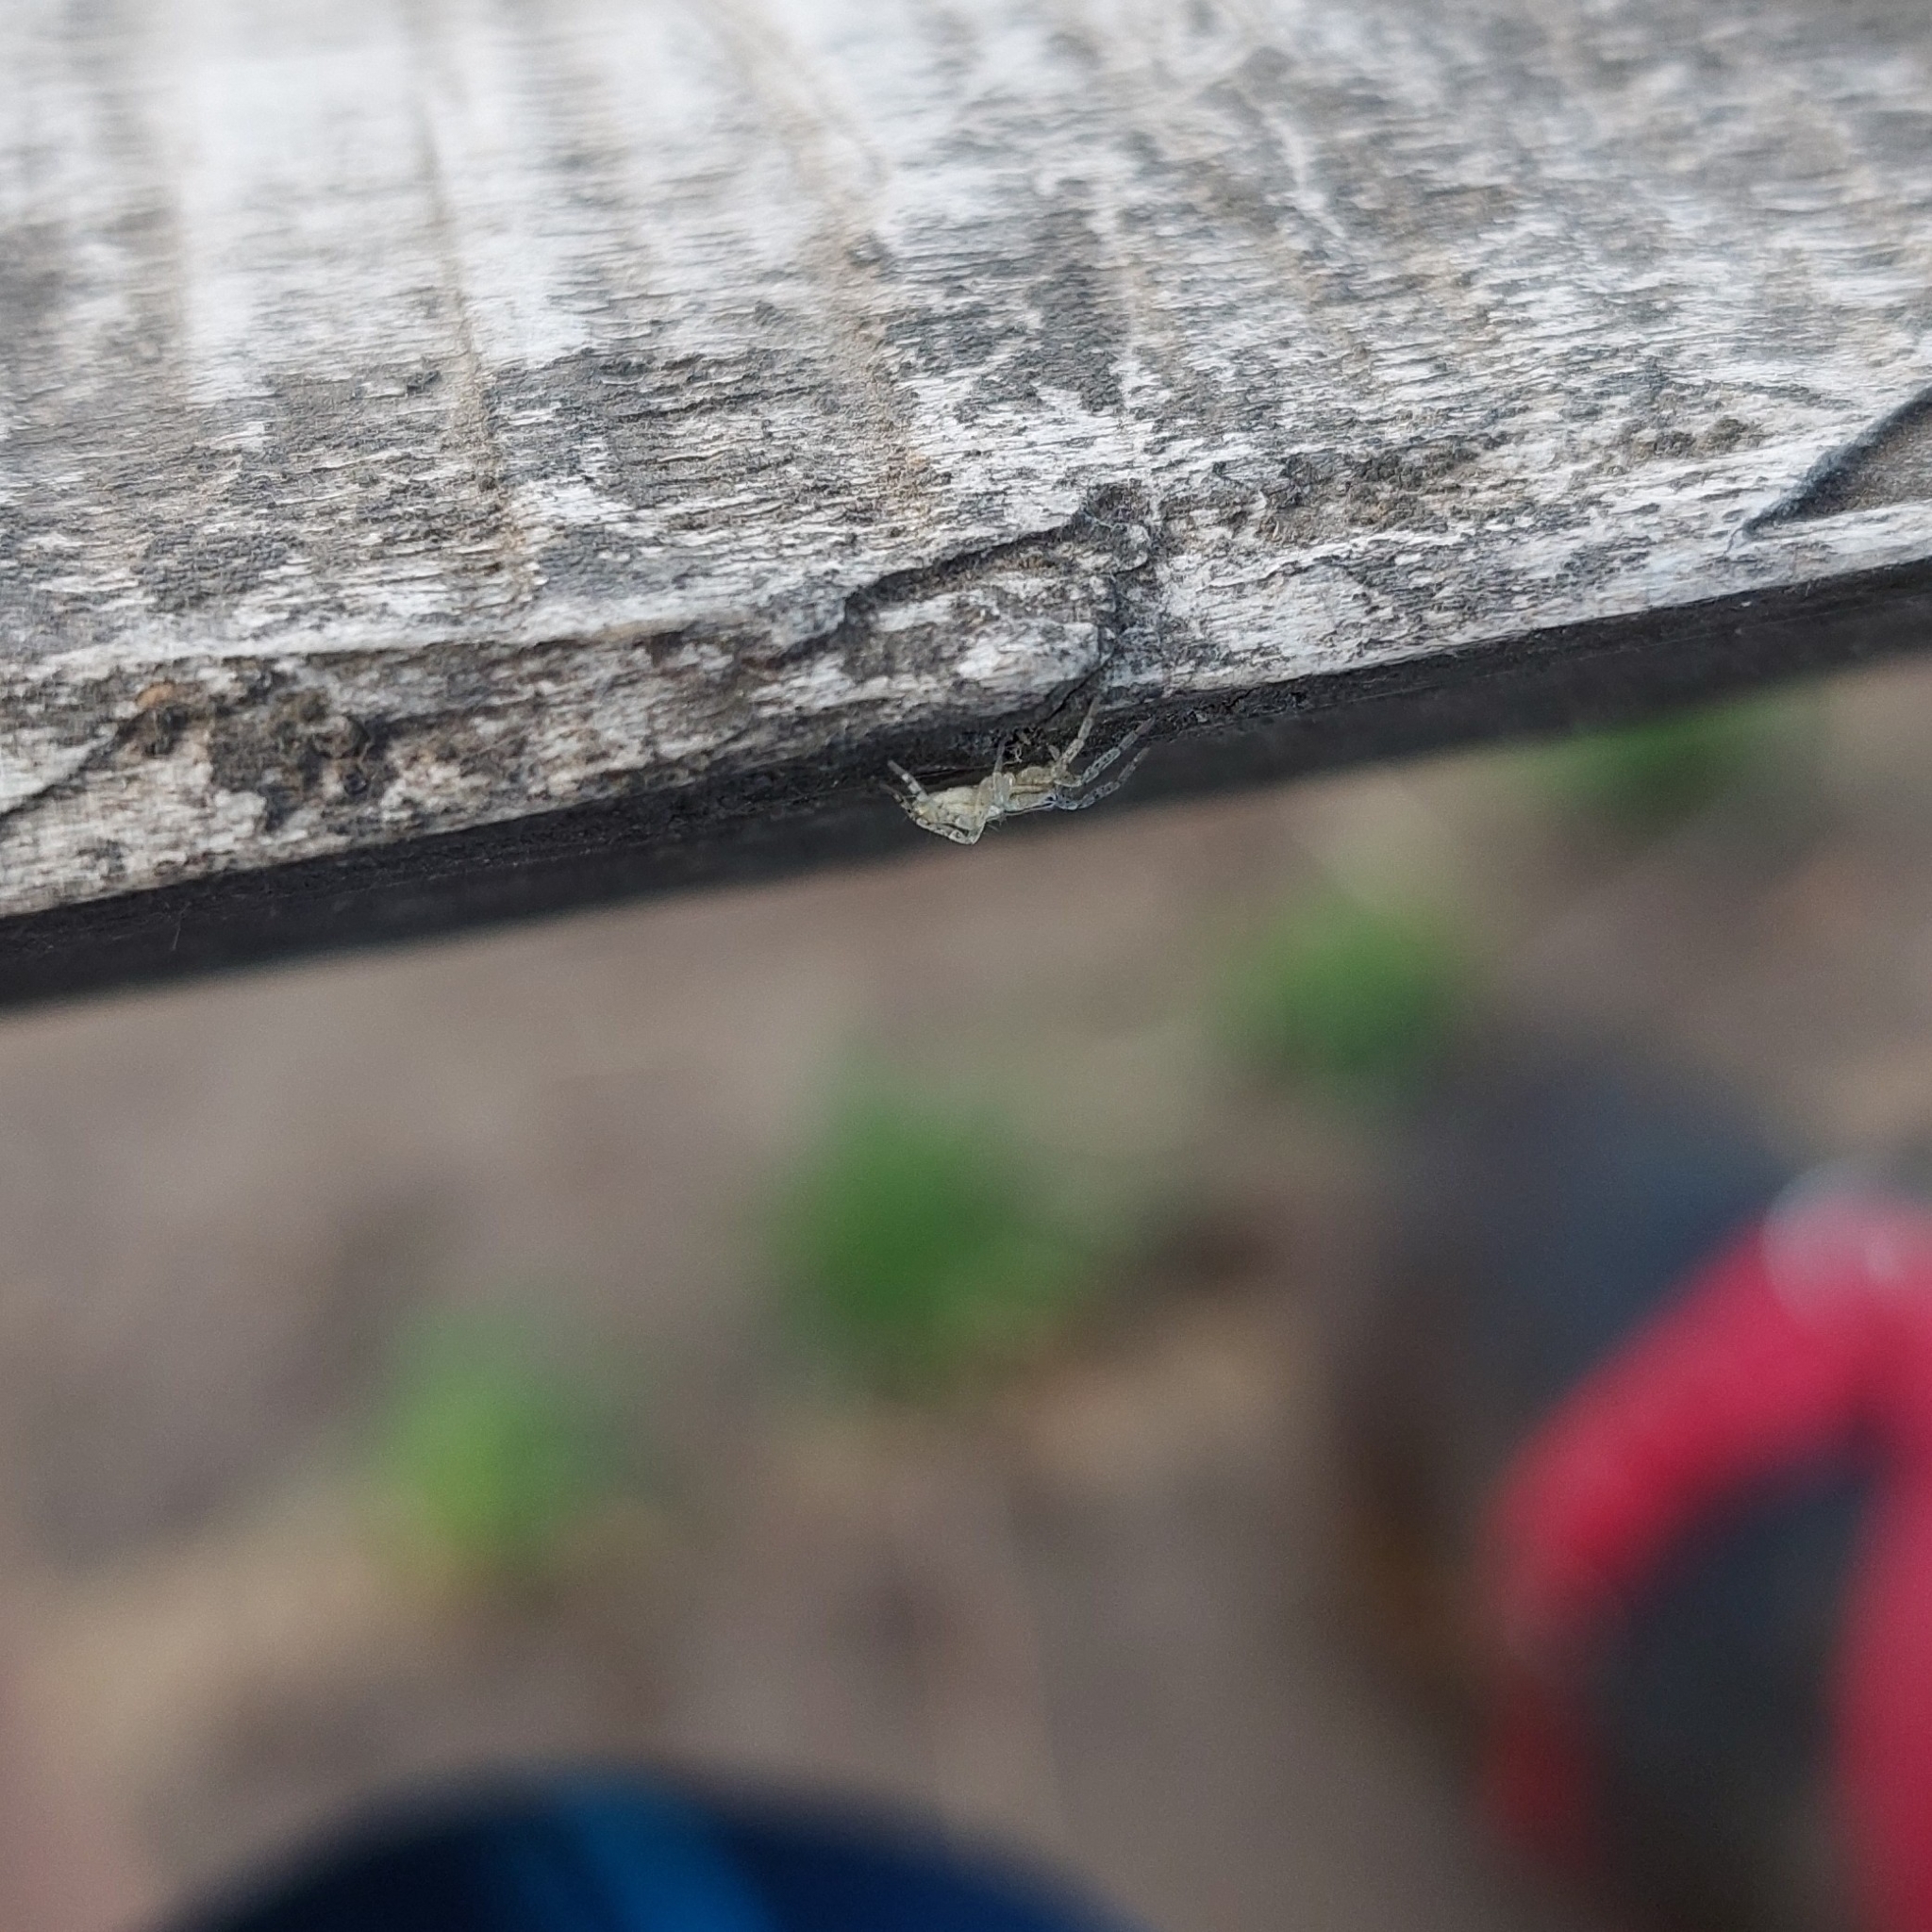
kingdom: Animalia
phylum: Arthropoda
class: Arachnida
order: Araneae
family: Anyphaenidae
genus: Arachosia
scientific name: Arachosia praesignis
